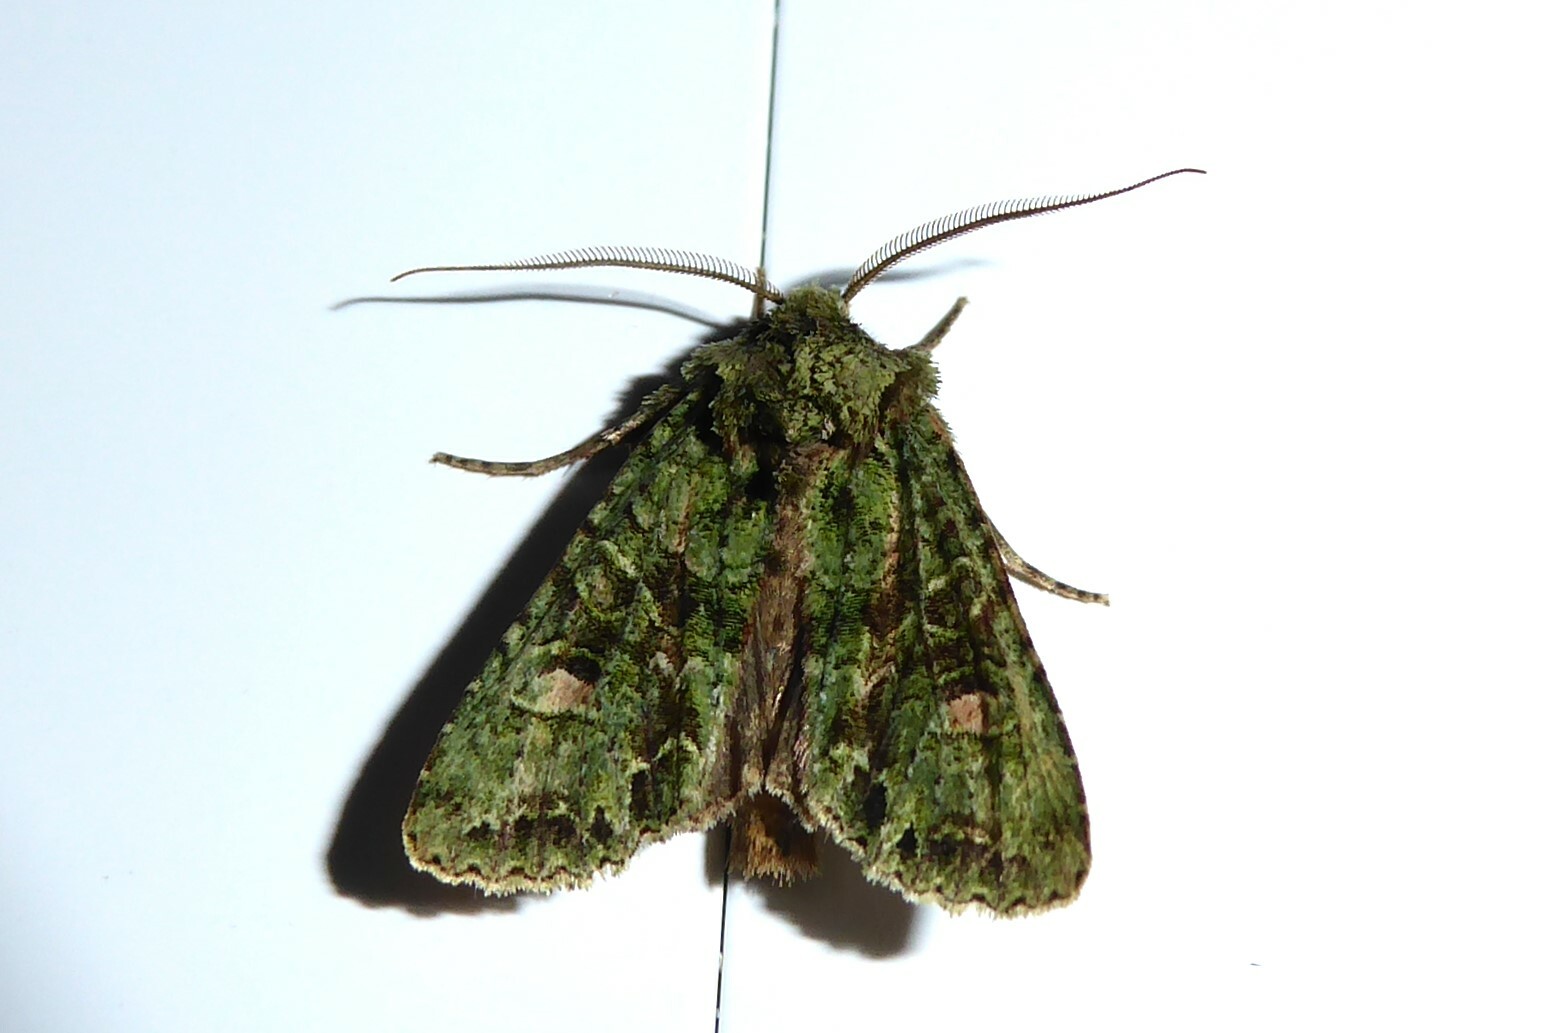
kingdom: Animalia
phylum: Arthropoda
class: Insecta
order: Lepidoptera
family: Noctuidae
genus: Ichneutica
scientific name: Ichneutica
